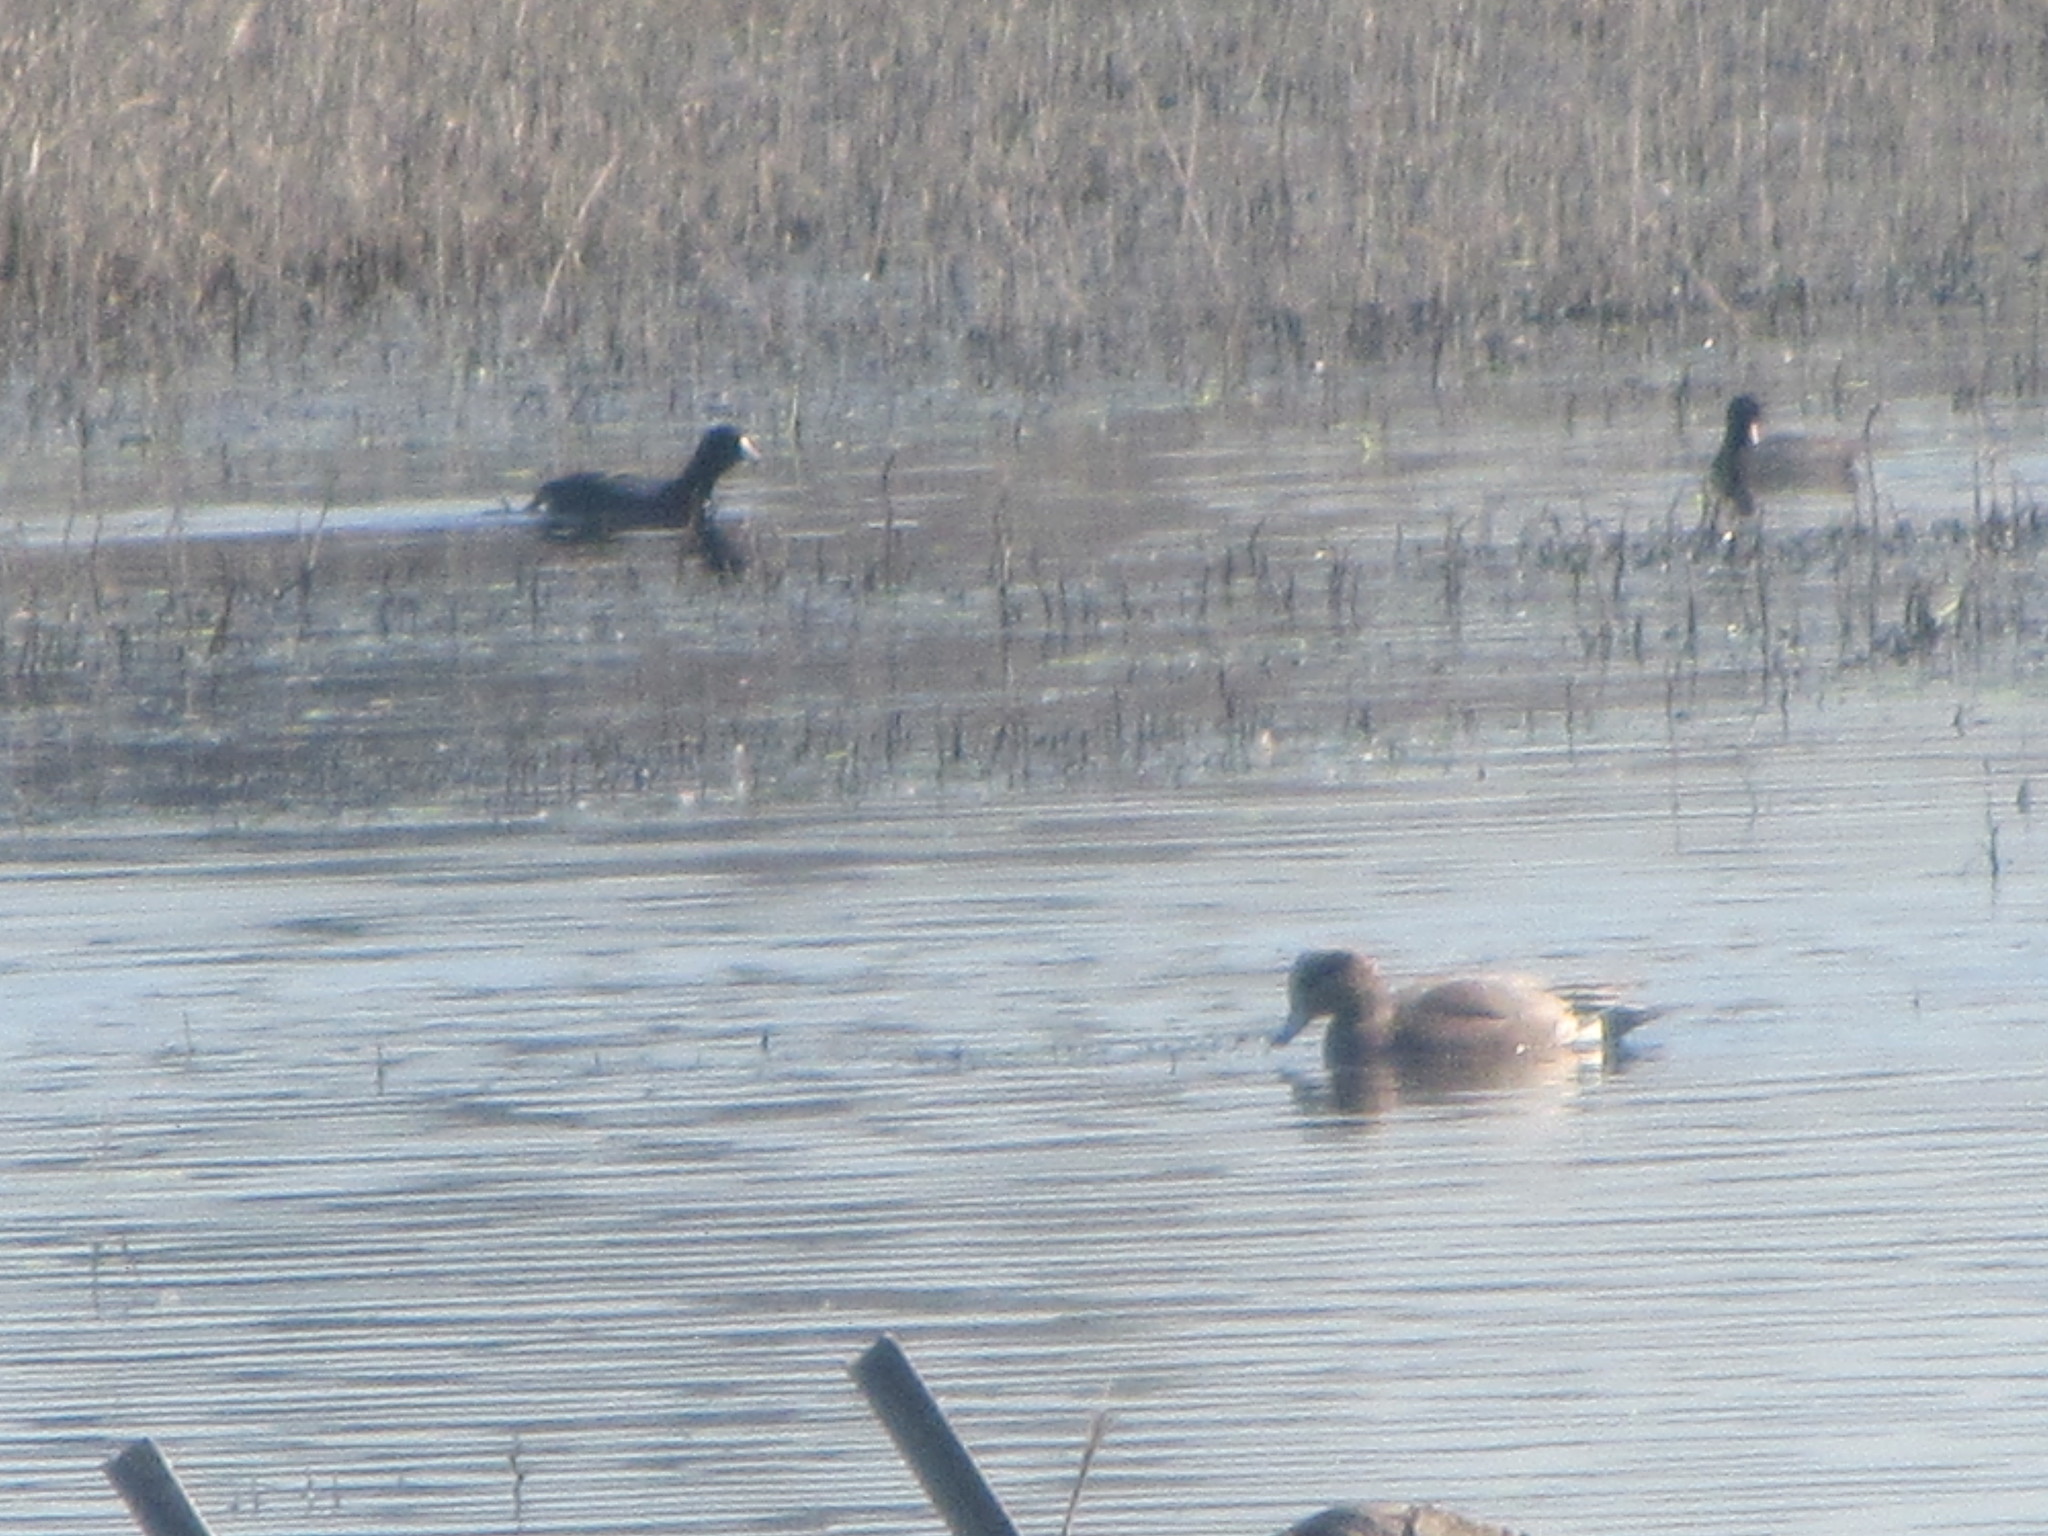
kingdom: Animalia
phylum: Chordata
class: Aves
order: Gruiformes
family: Rallidae
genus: Fulica
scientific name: Fulica americana
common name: American coot
